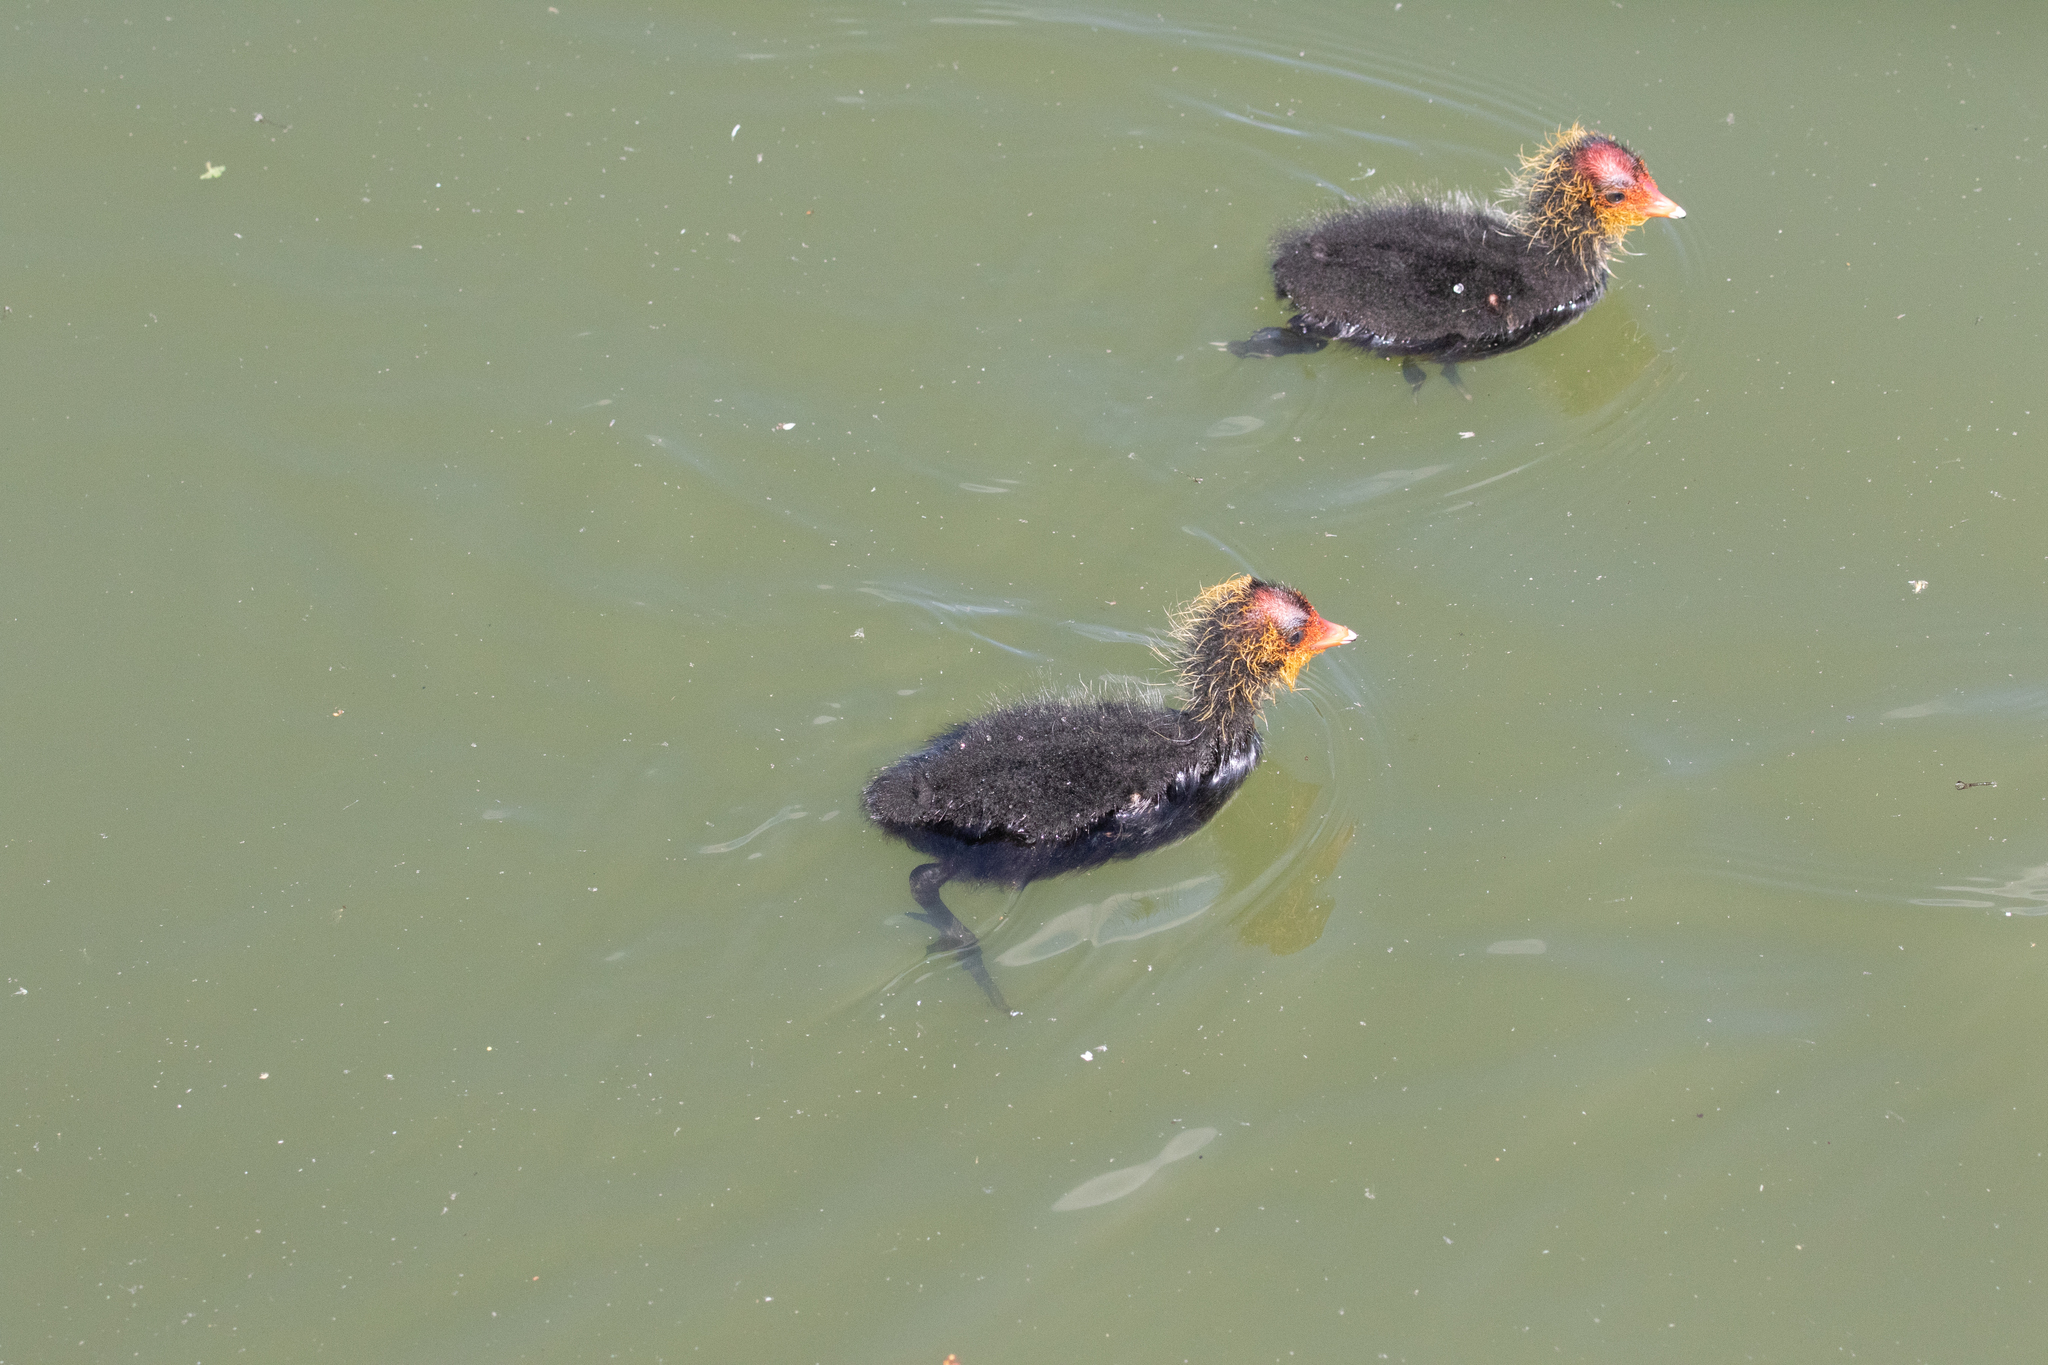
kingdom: Animalia
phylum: Chordata
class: Aves
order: Gruiformes
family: Rallidae
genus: Fulica
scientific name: Fulica atra
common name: Eurasian coot
